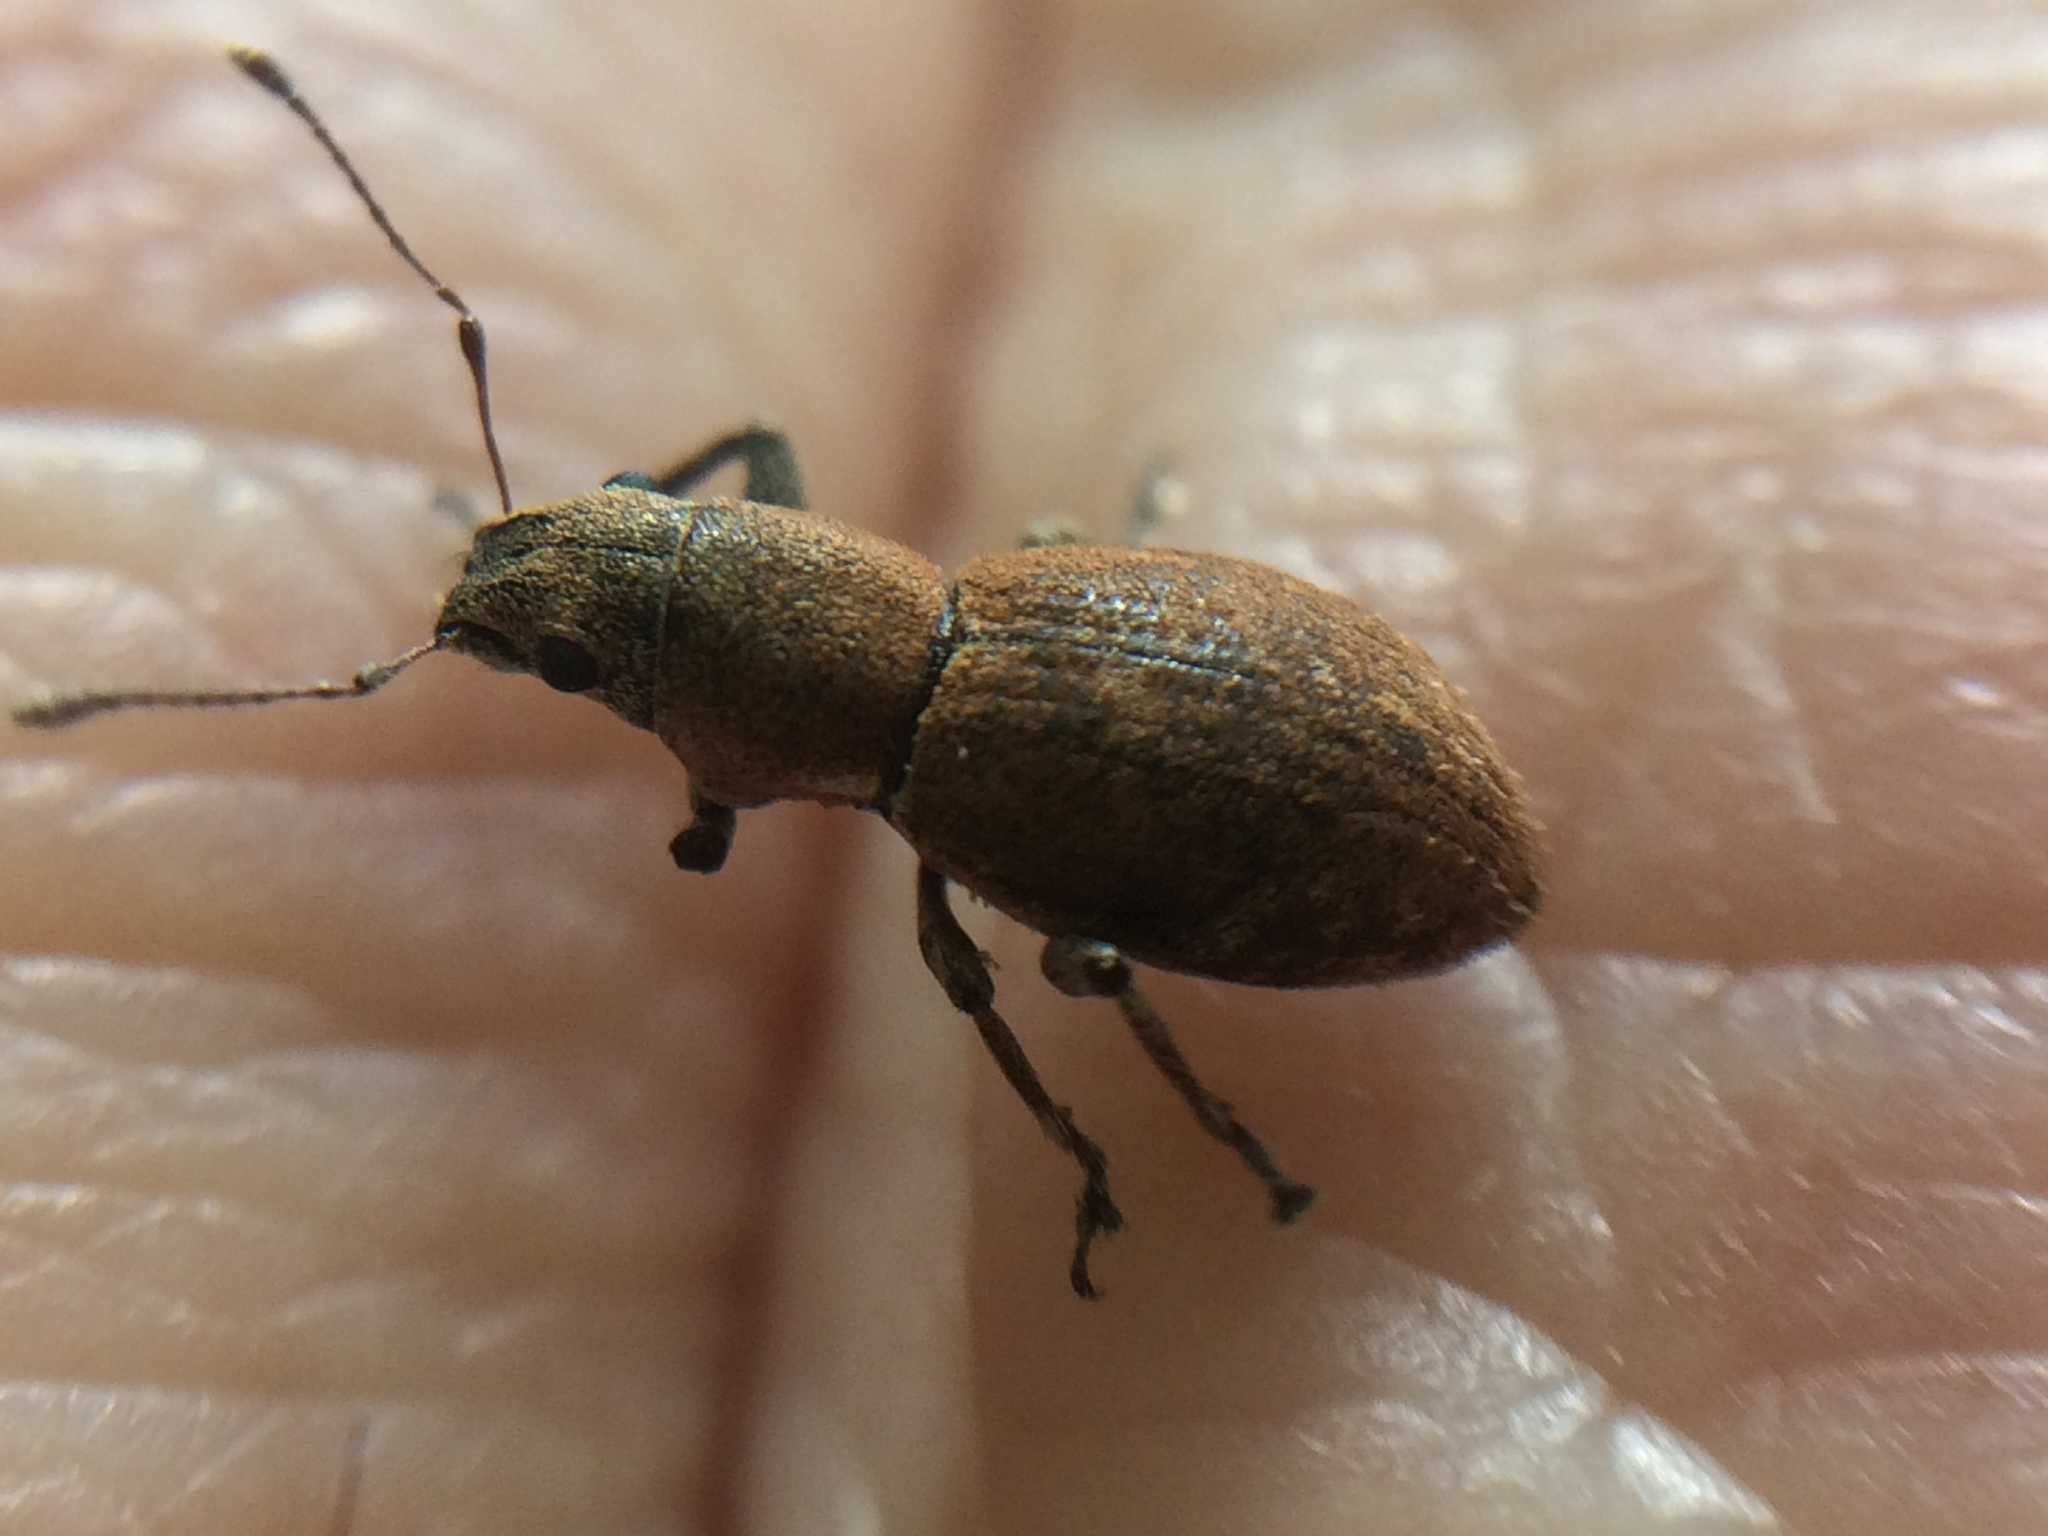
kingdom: Animalia
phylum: Arthropoda
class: Insecta
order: Coleoptera
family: Curculionidae
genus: Naupactus
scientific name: Naupactus cervinus
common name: Fuller rose beetle
